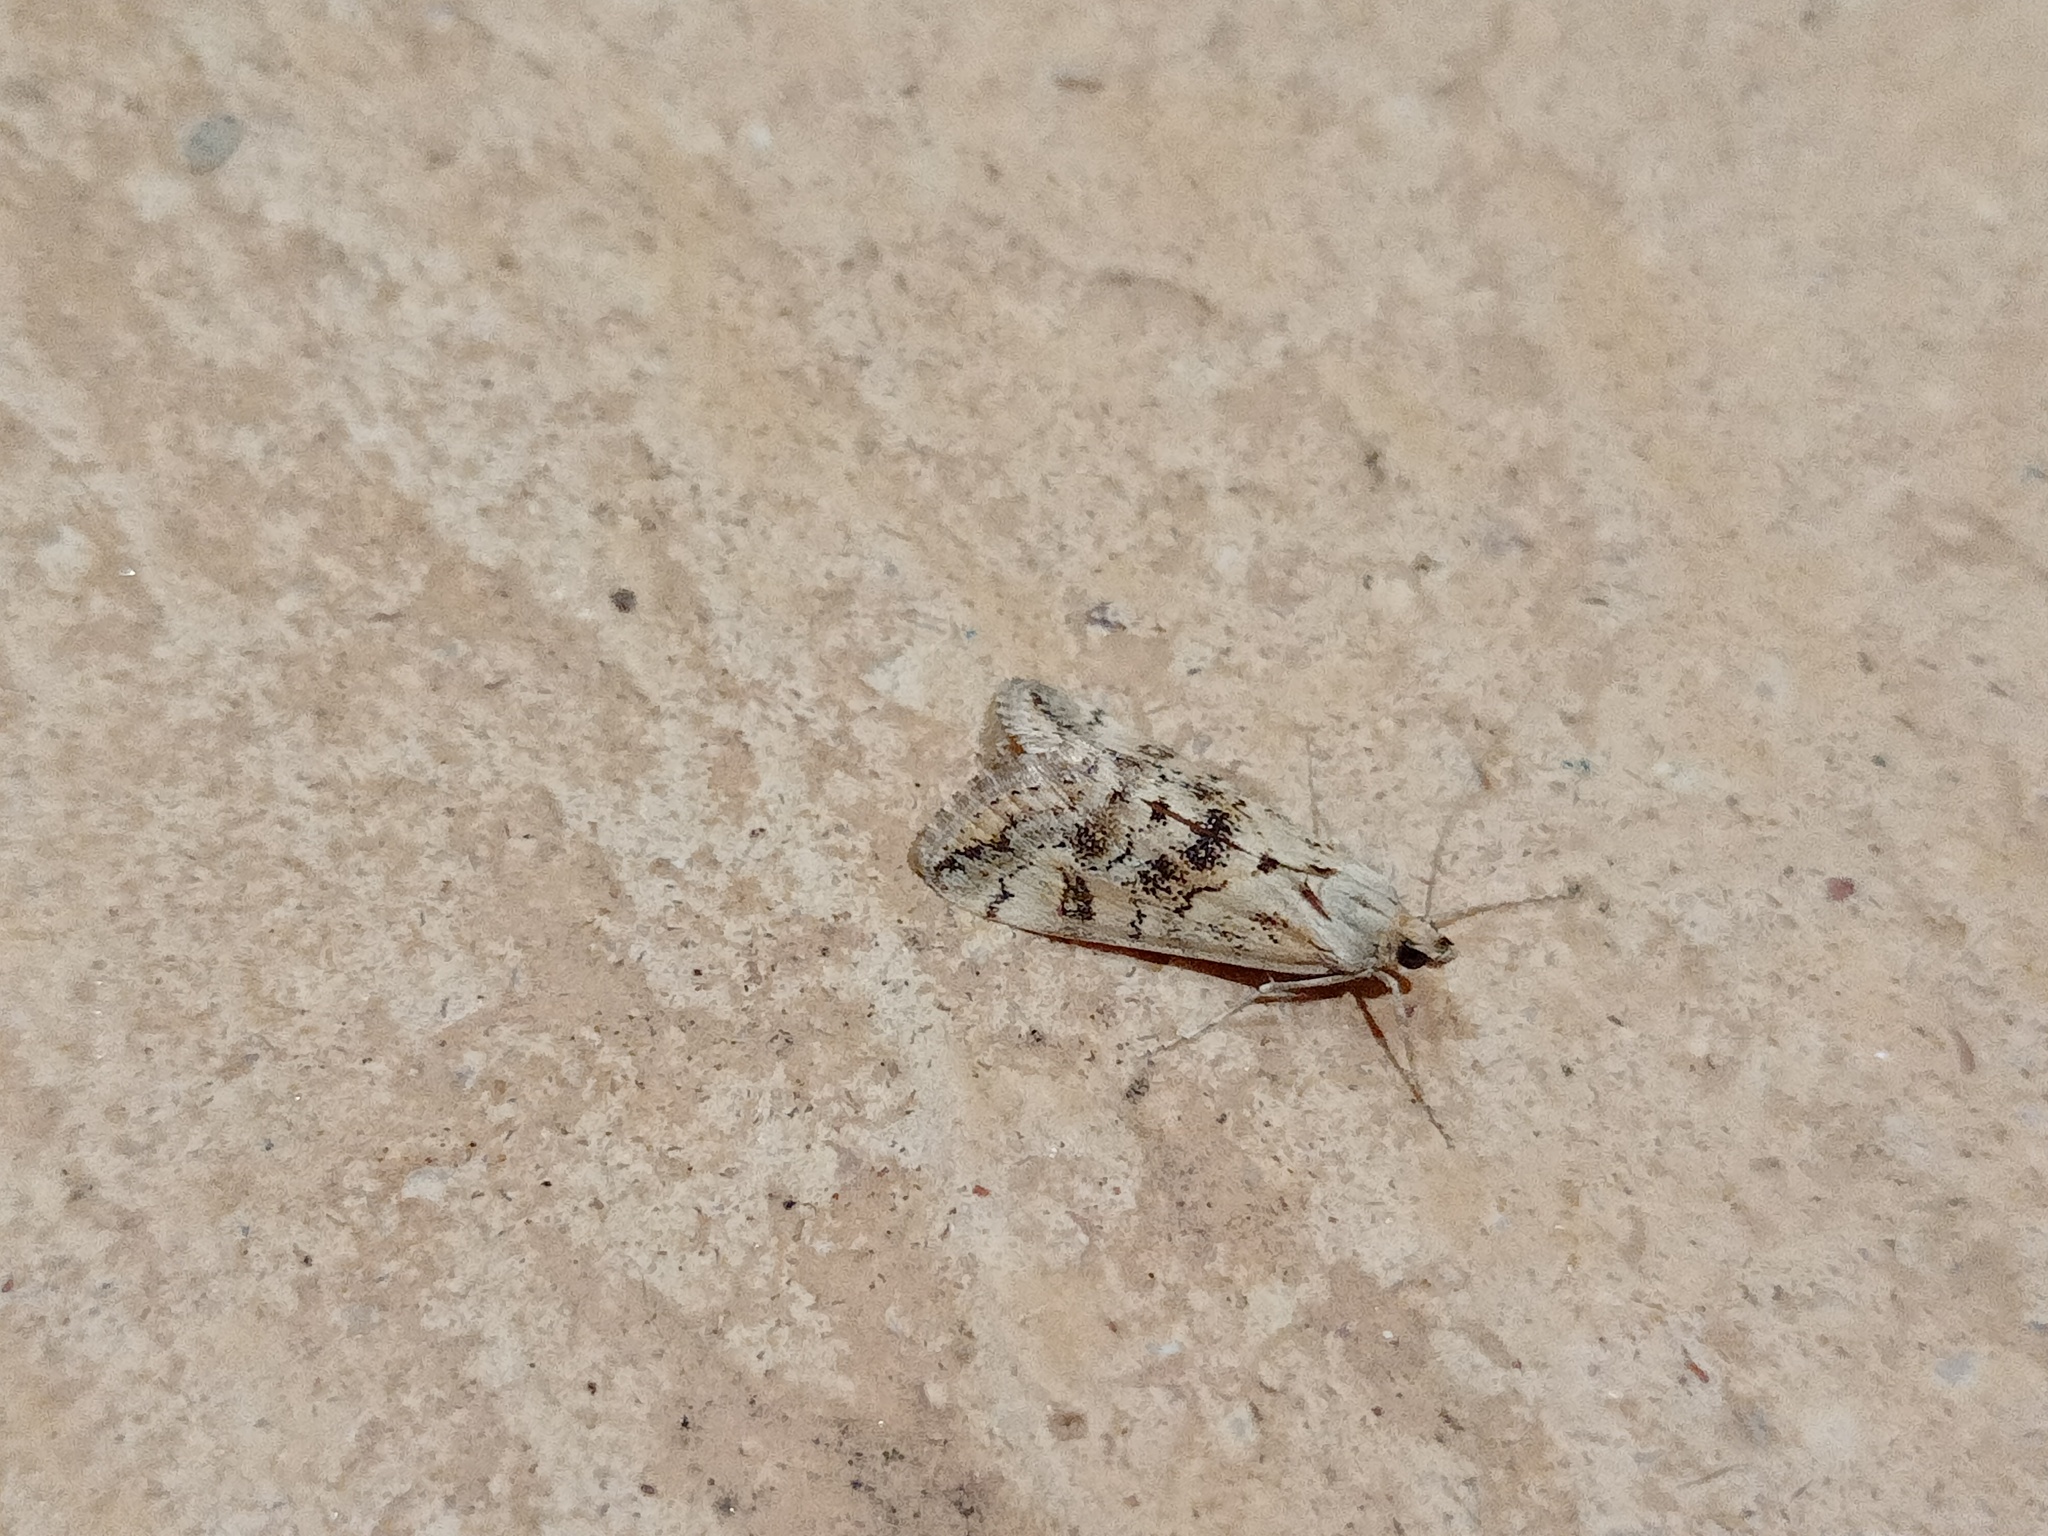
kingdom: Animalia
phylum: Arthropoda
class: Insecta
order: Lepidoptera
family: Crambidae
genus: Cornifrons
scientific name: Cornifrons ulceratalis
